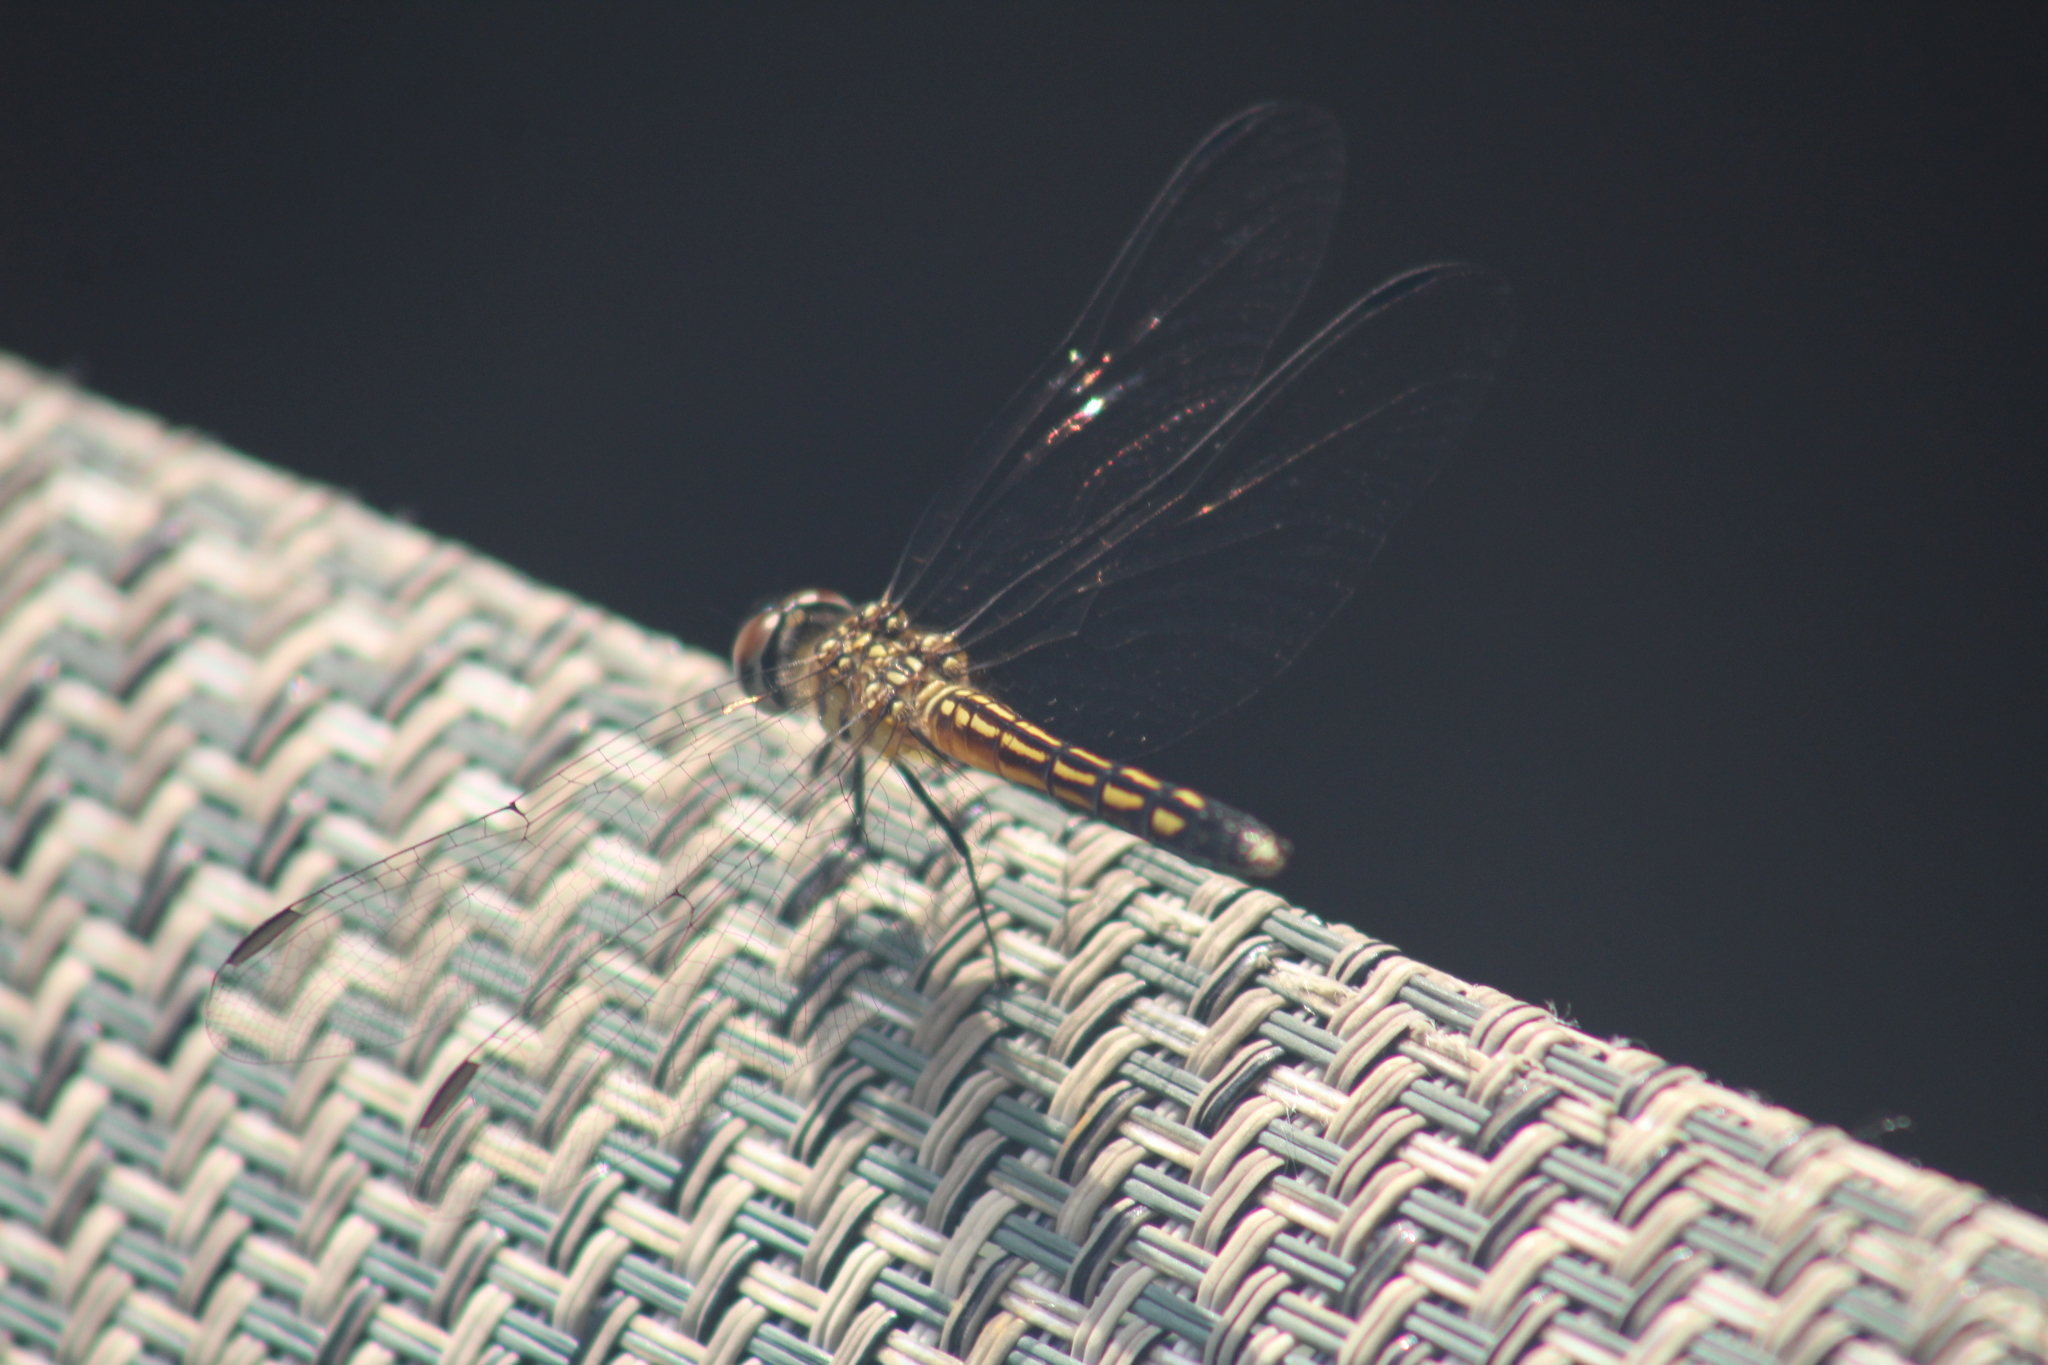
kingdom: Animalia
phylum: Arthropoda
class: Insecta
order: Odonata
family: Libellulidae
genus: Pachydiplax
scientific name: Pachydiplax longipennis
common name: Blue dasher
